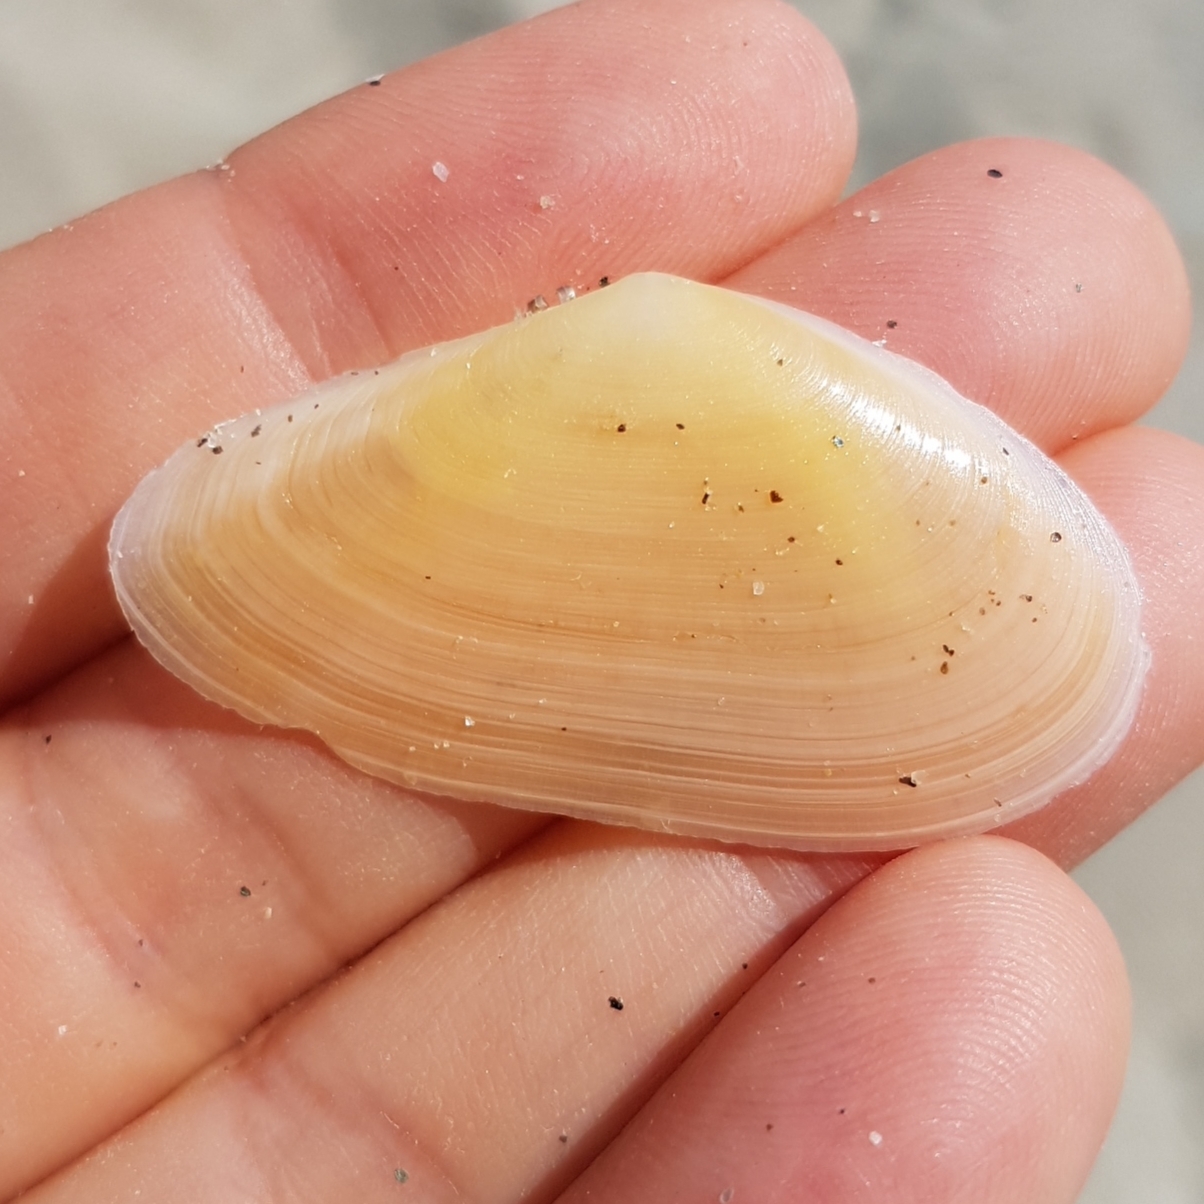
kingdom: Animalia
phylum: Mollusca
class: Bivalvia
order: Cardiida
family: Tellinidae
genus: Peronidia
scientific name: Peronidia albicans
